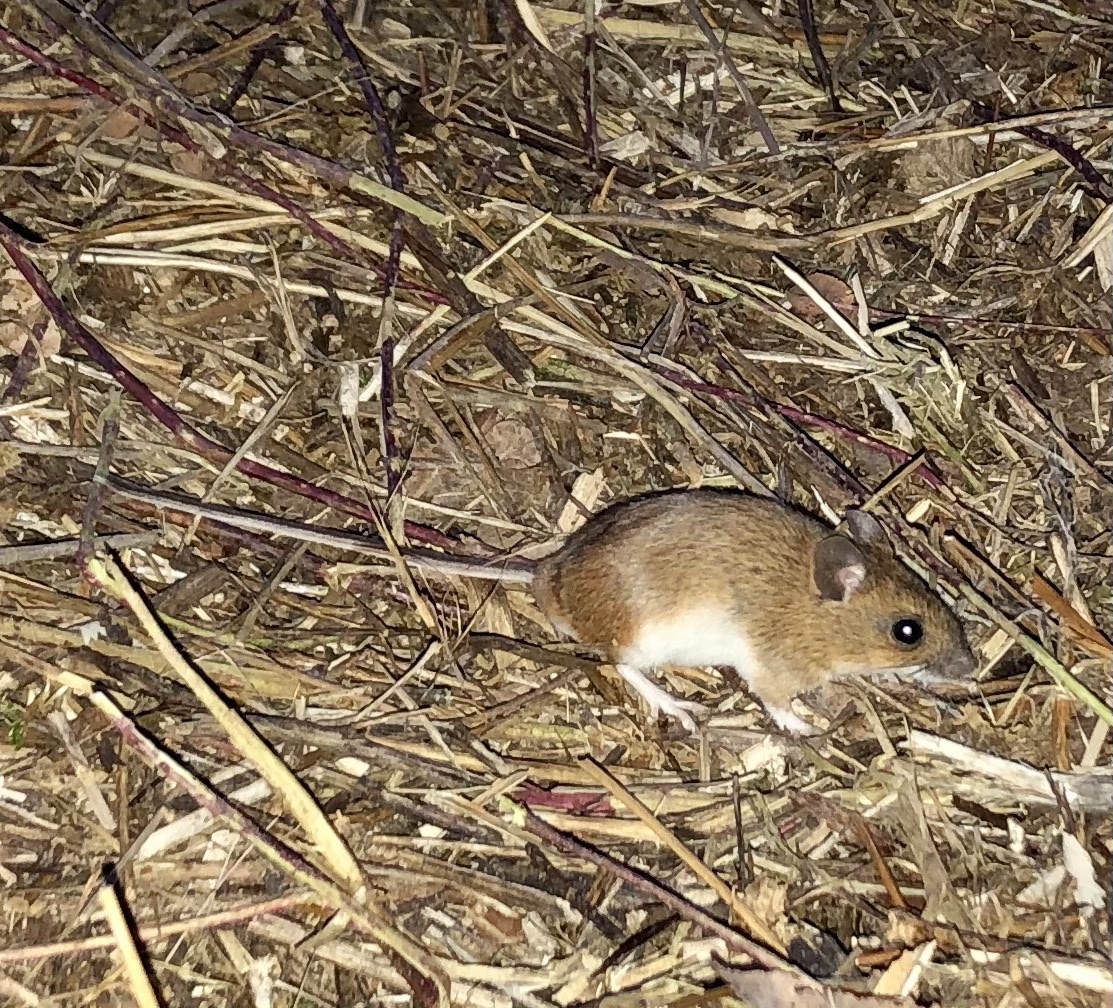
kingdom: Animalia
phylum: Chordata
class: Mammalia
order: Rodentia
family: Muridae
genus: Apodemus
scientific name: Apodemus flavicollis
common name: Yellow-necked field mouse
